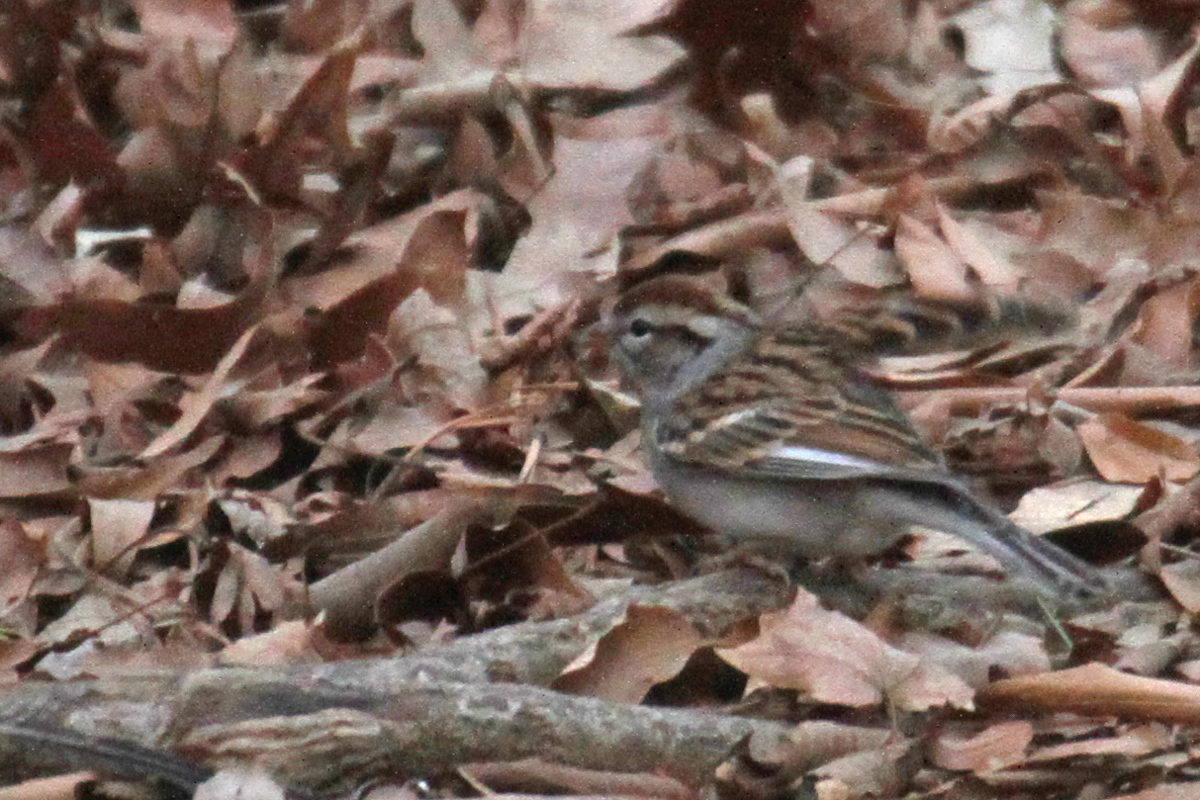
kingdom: Animalia
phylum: Chordata
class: Aves
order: Passeriformes
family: Passerellidae
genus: Spizella
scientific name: Spizella passerina
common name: Chipping sparrow
